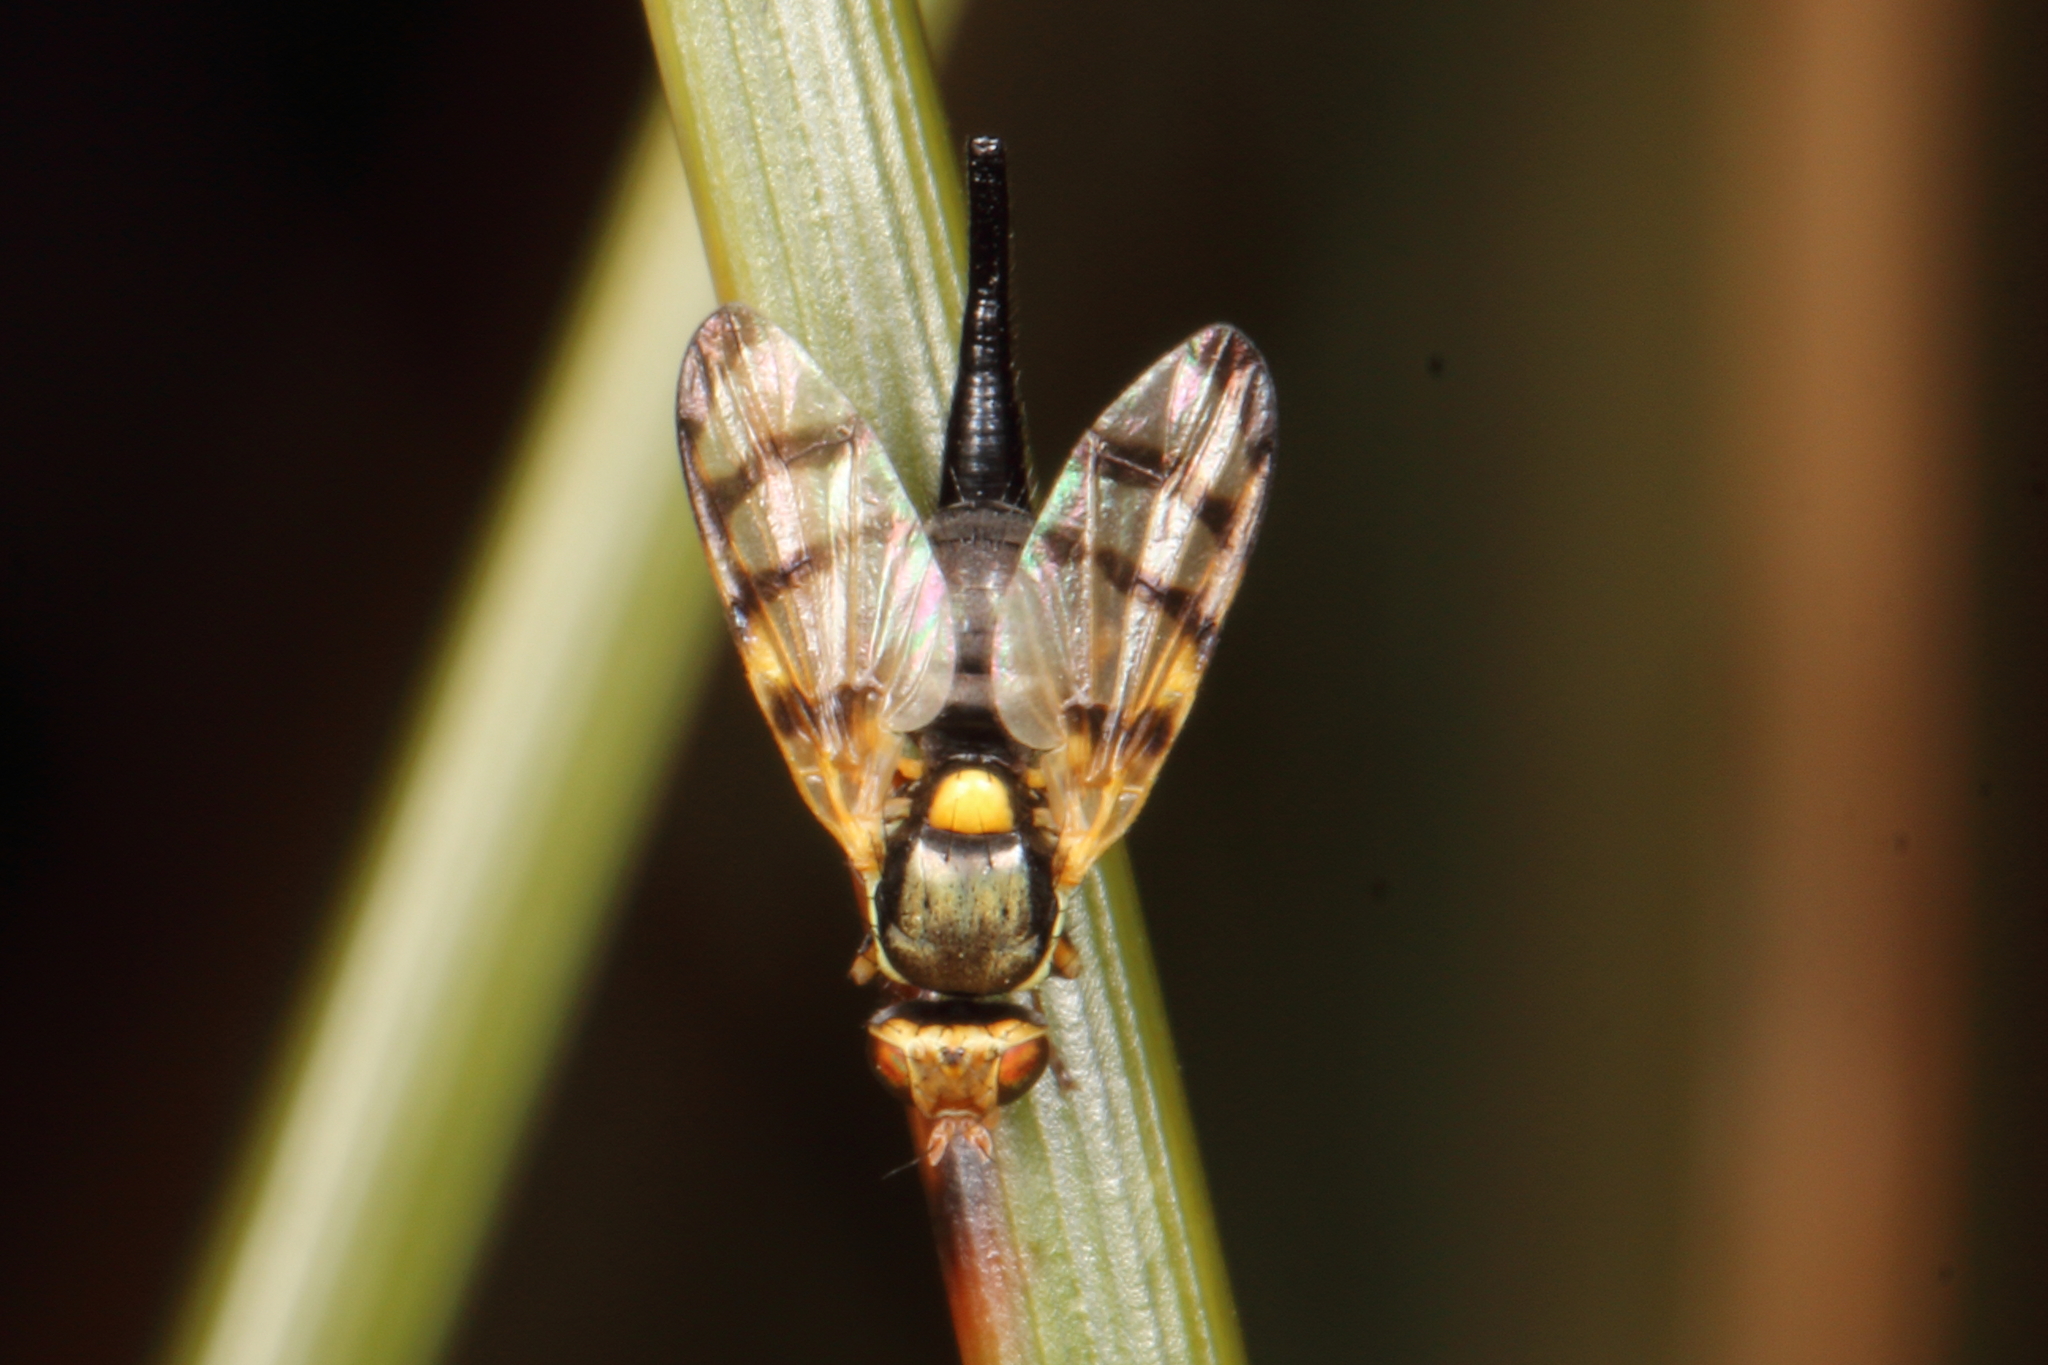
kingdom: Animalia
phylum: Arthropoda
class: Insecta
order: Diptera
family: Tephritidae
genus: Urophora
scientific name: Urophora solstitialis
